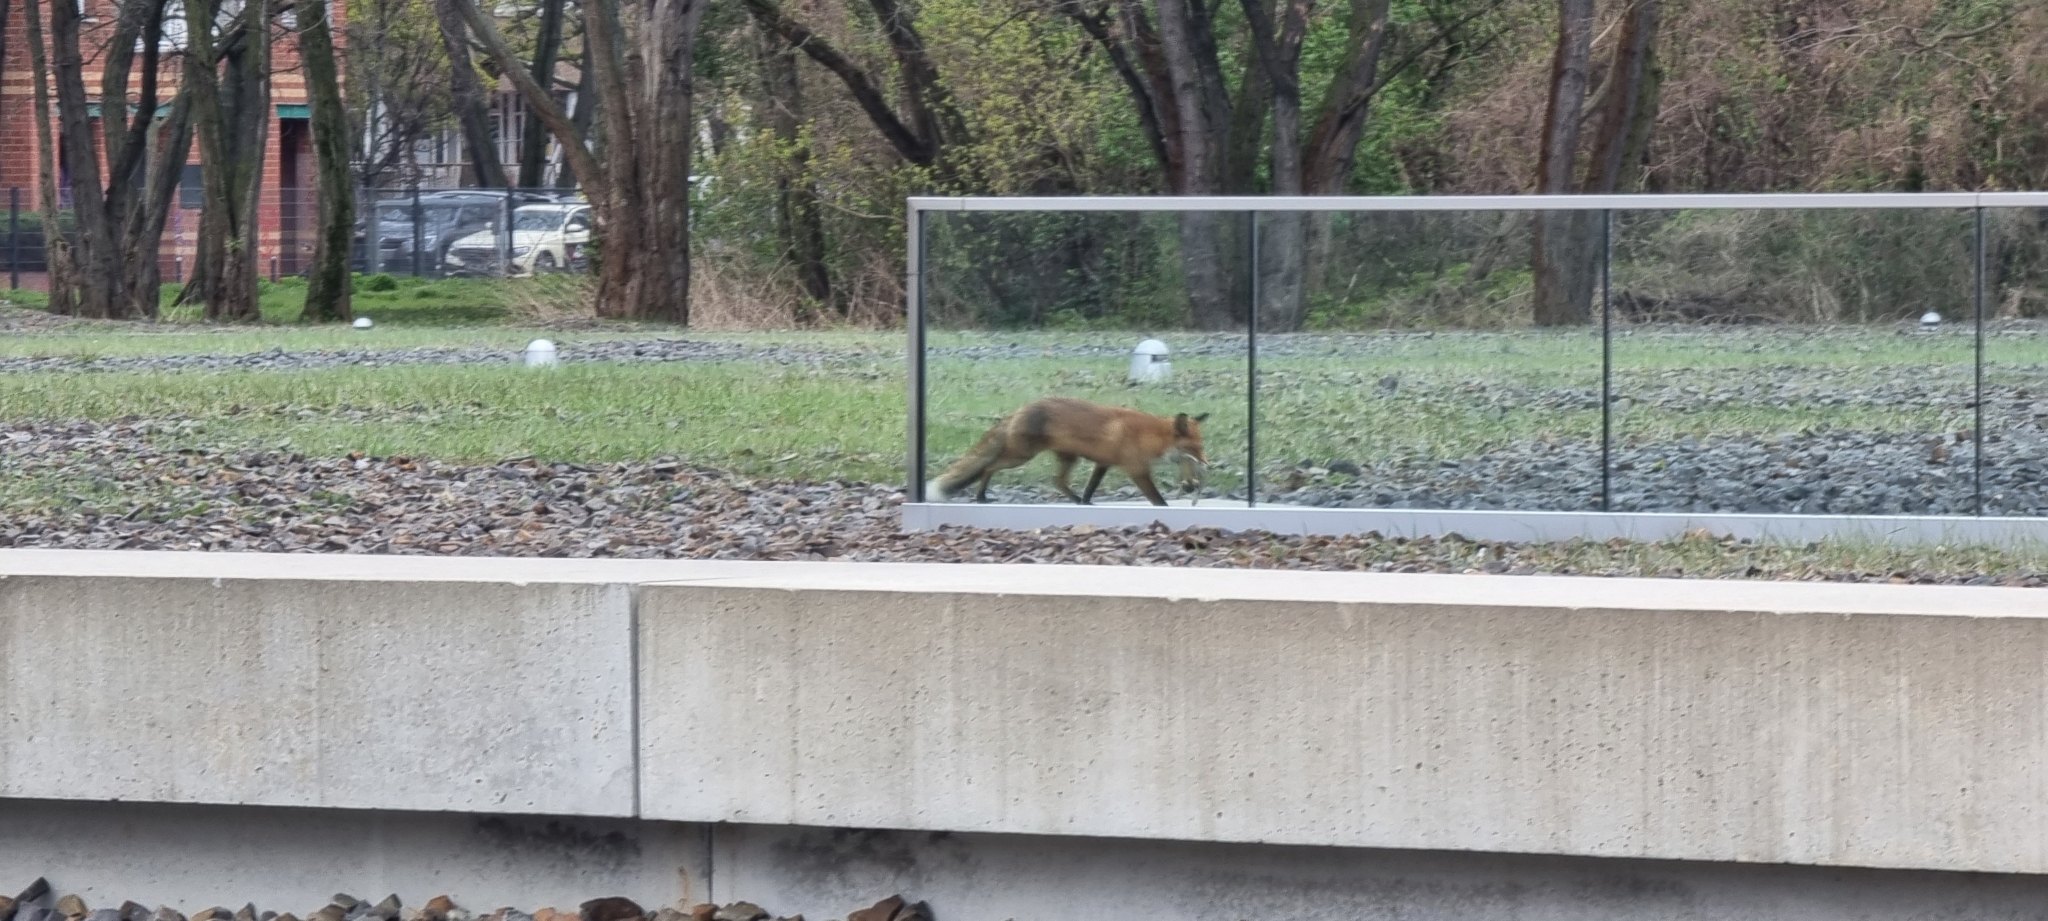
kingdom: Animalia
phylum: Chordata
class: Mammalia
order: Carnivora
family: Canidae
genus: Vulpes
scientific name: Vulpes vulpes
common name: Red fox
